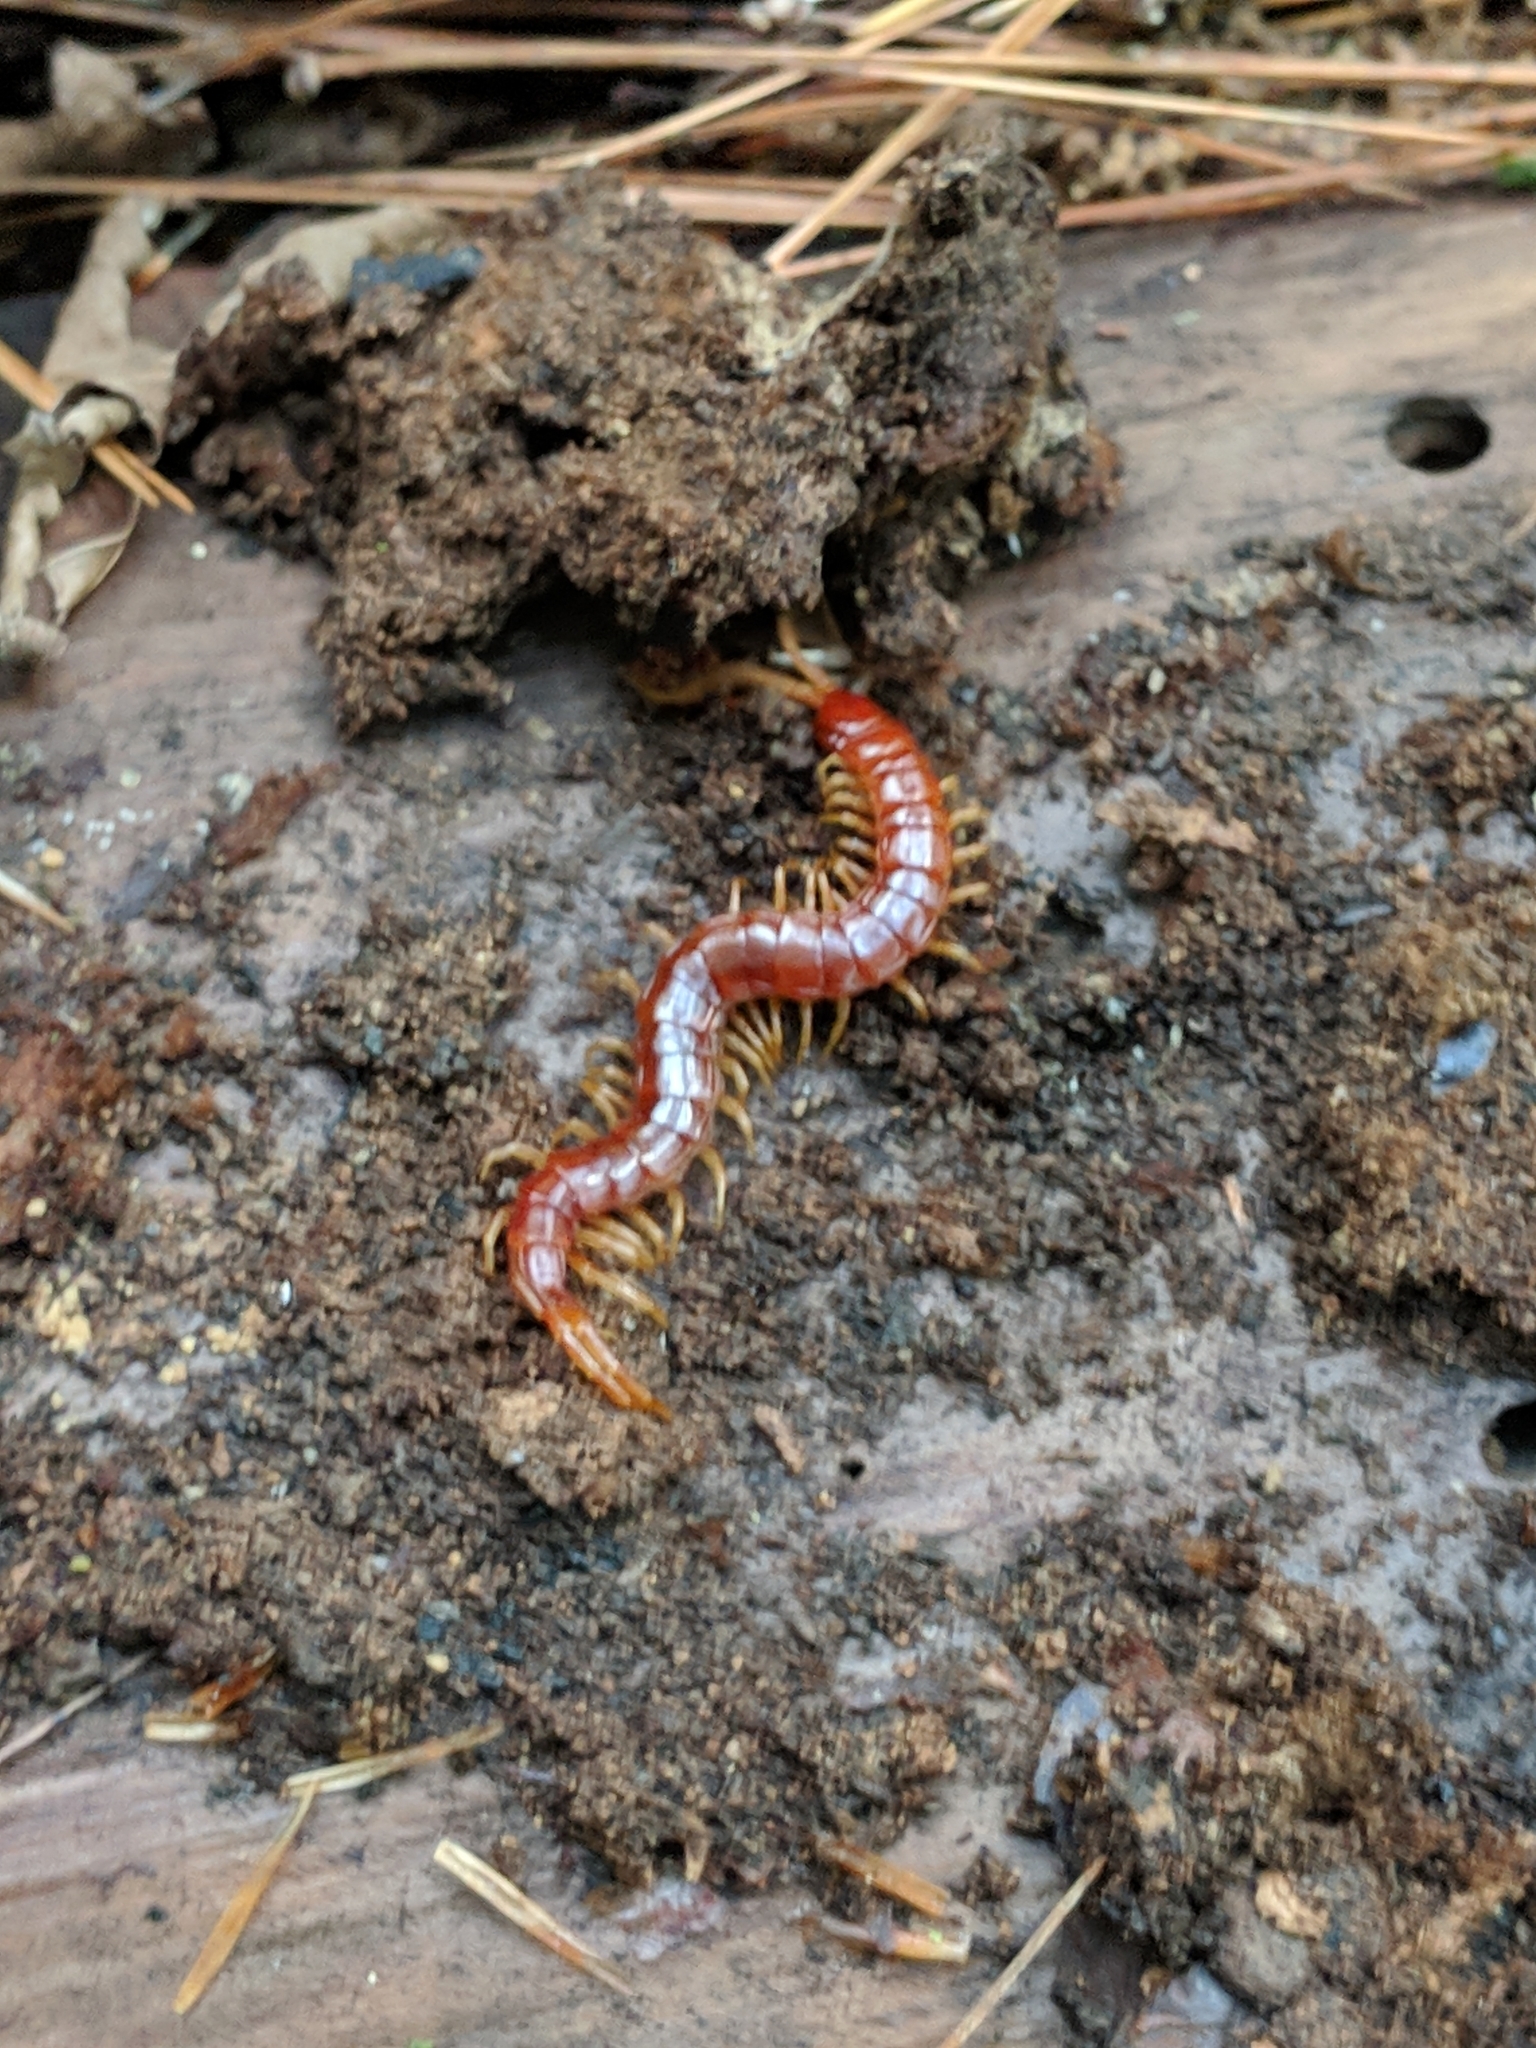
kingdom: Animalia
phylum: Arthropoda
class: Chilopoda
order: Scolopendromorpha
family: Scolopocryptopidae
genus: Scolopocryptops
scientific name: Scolopocryptops sexspinosus
